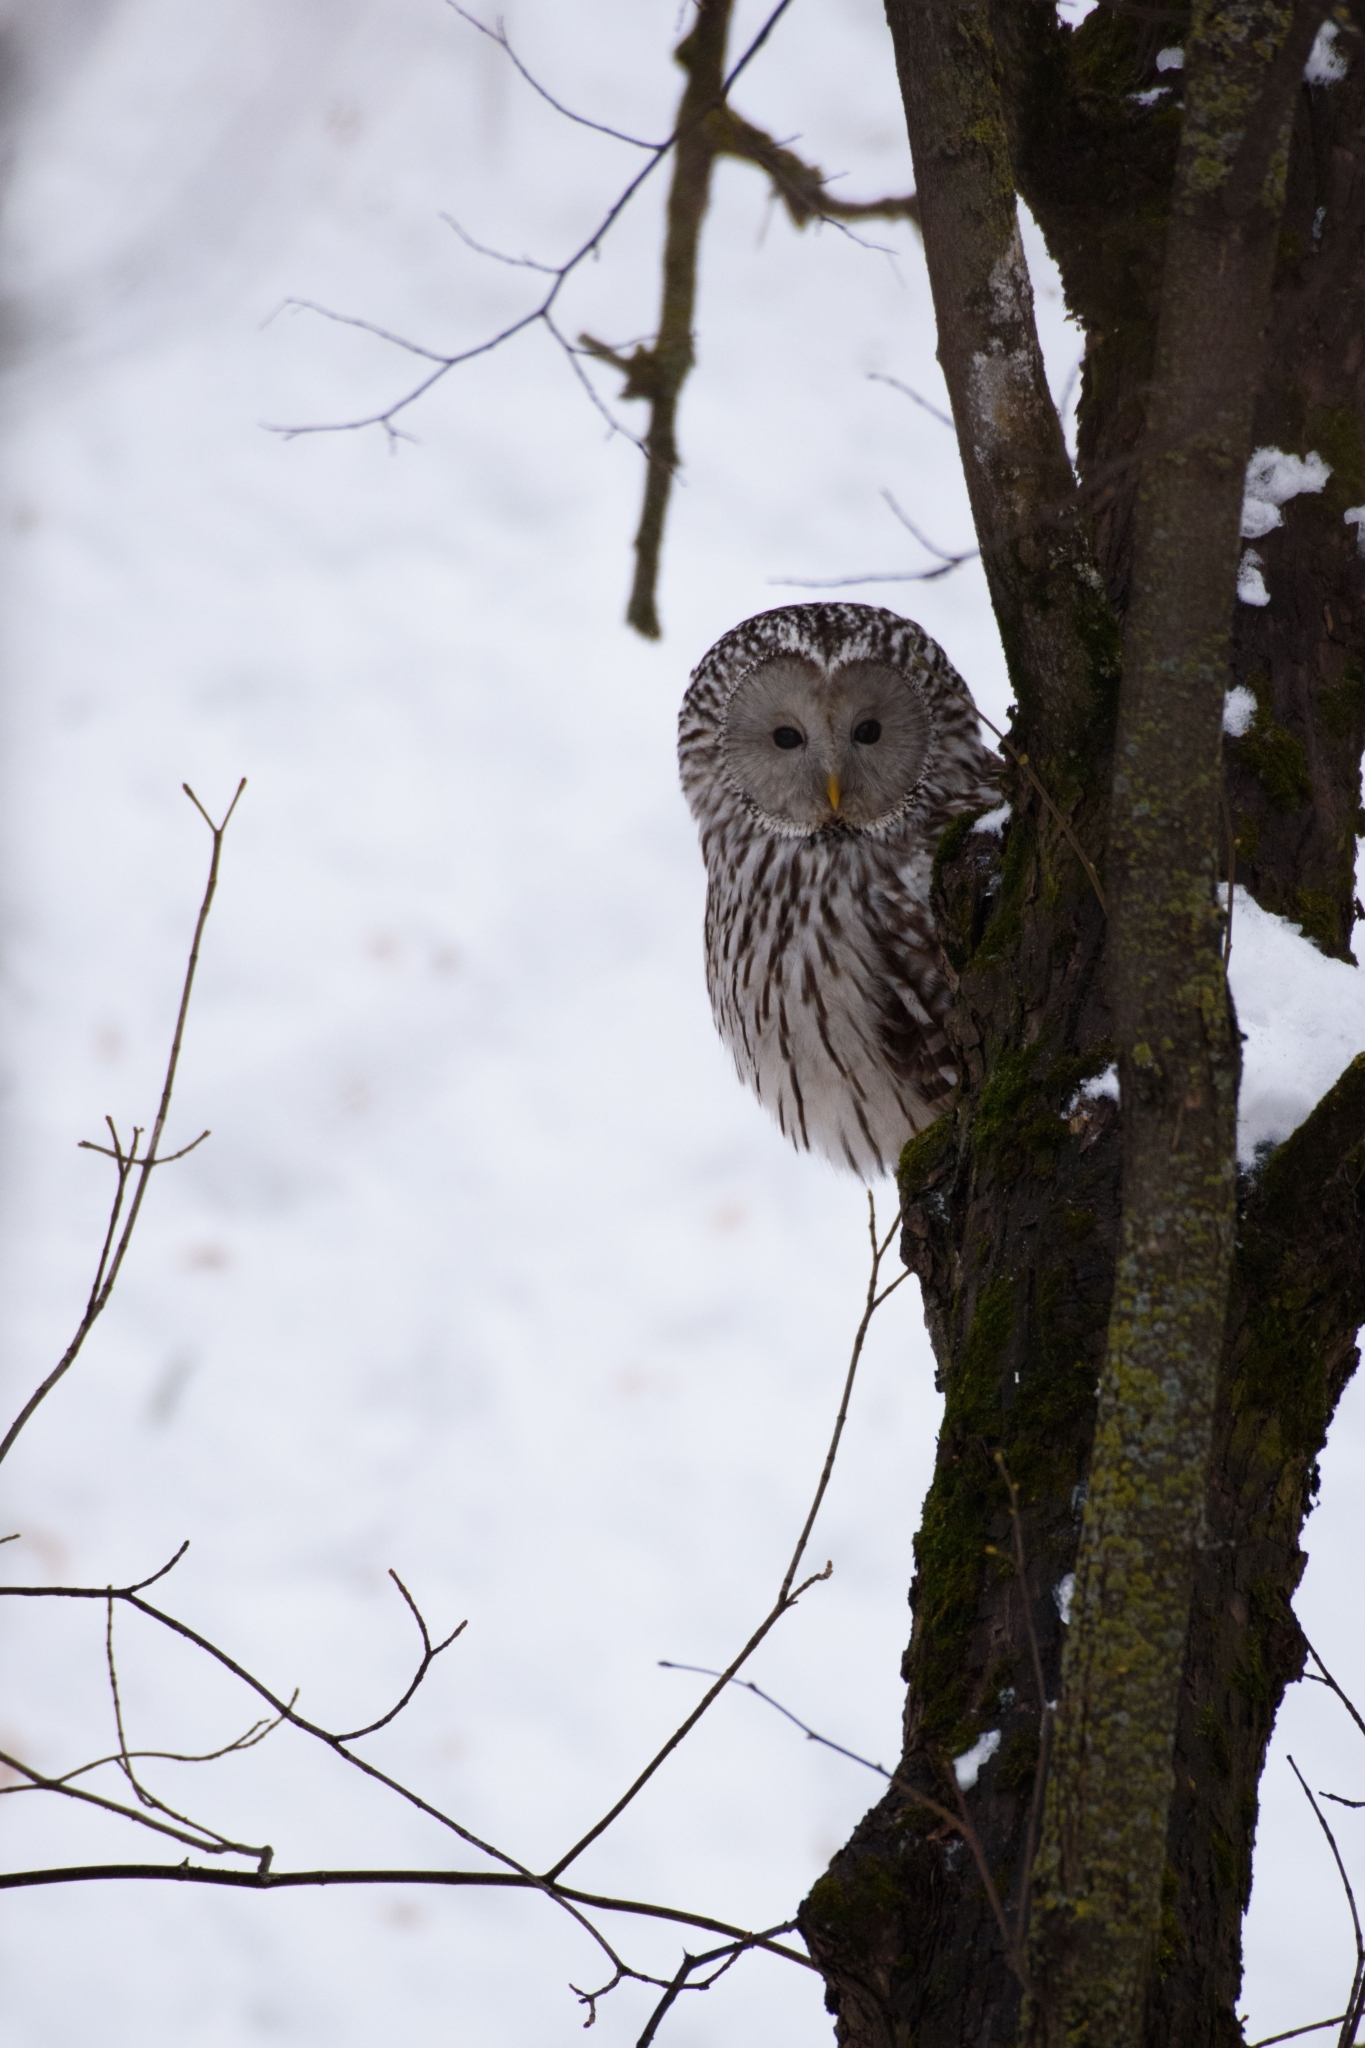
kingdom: Animalia
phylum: Chordata
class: Aves
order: Strigiformes
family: Strigidae
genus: Strix
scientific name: Strix uralensis
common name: Ural owl
